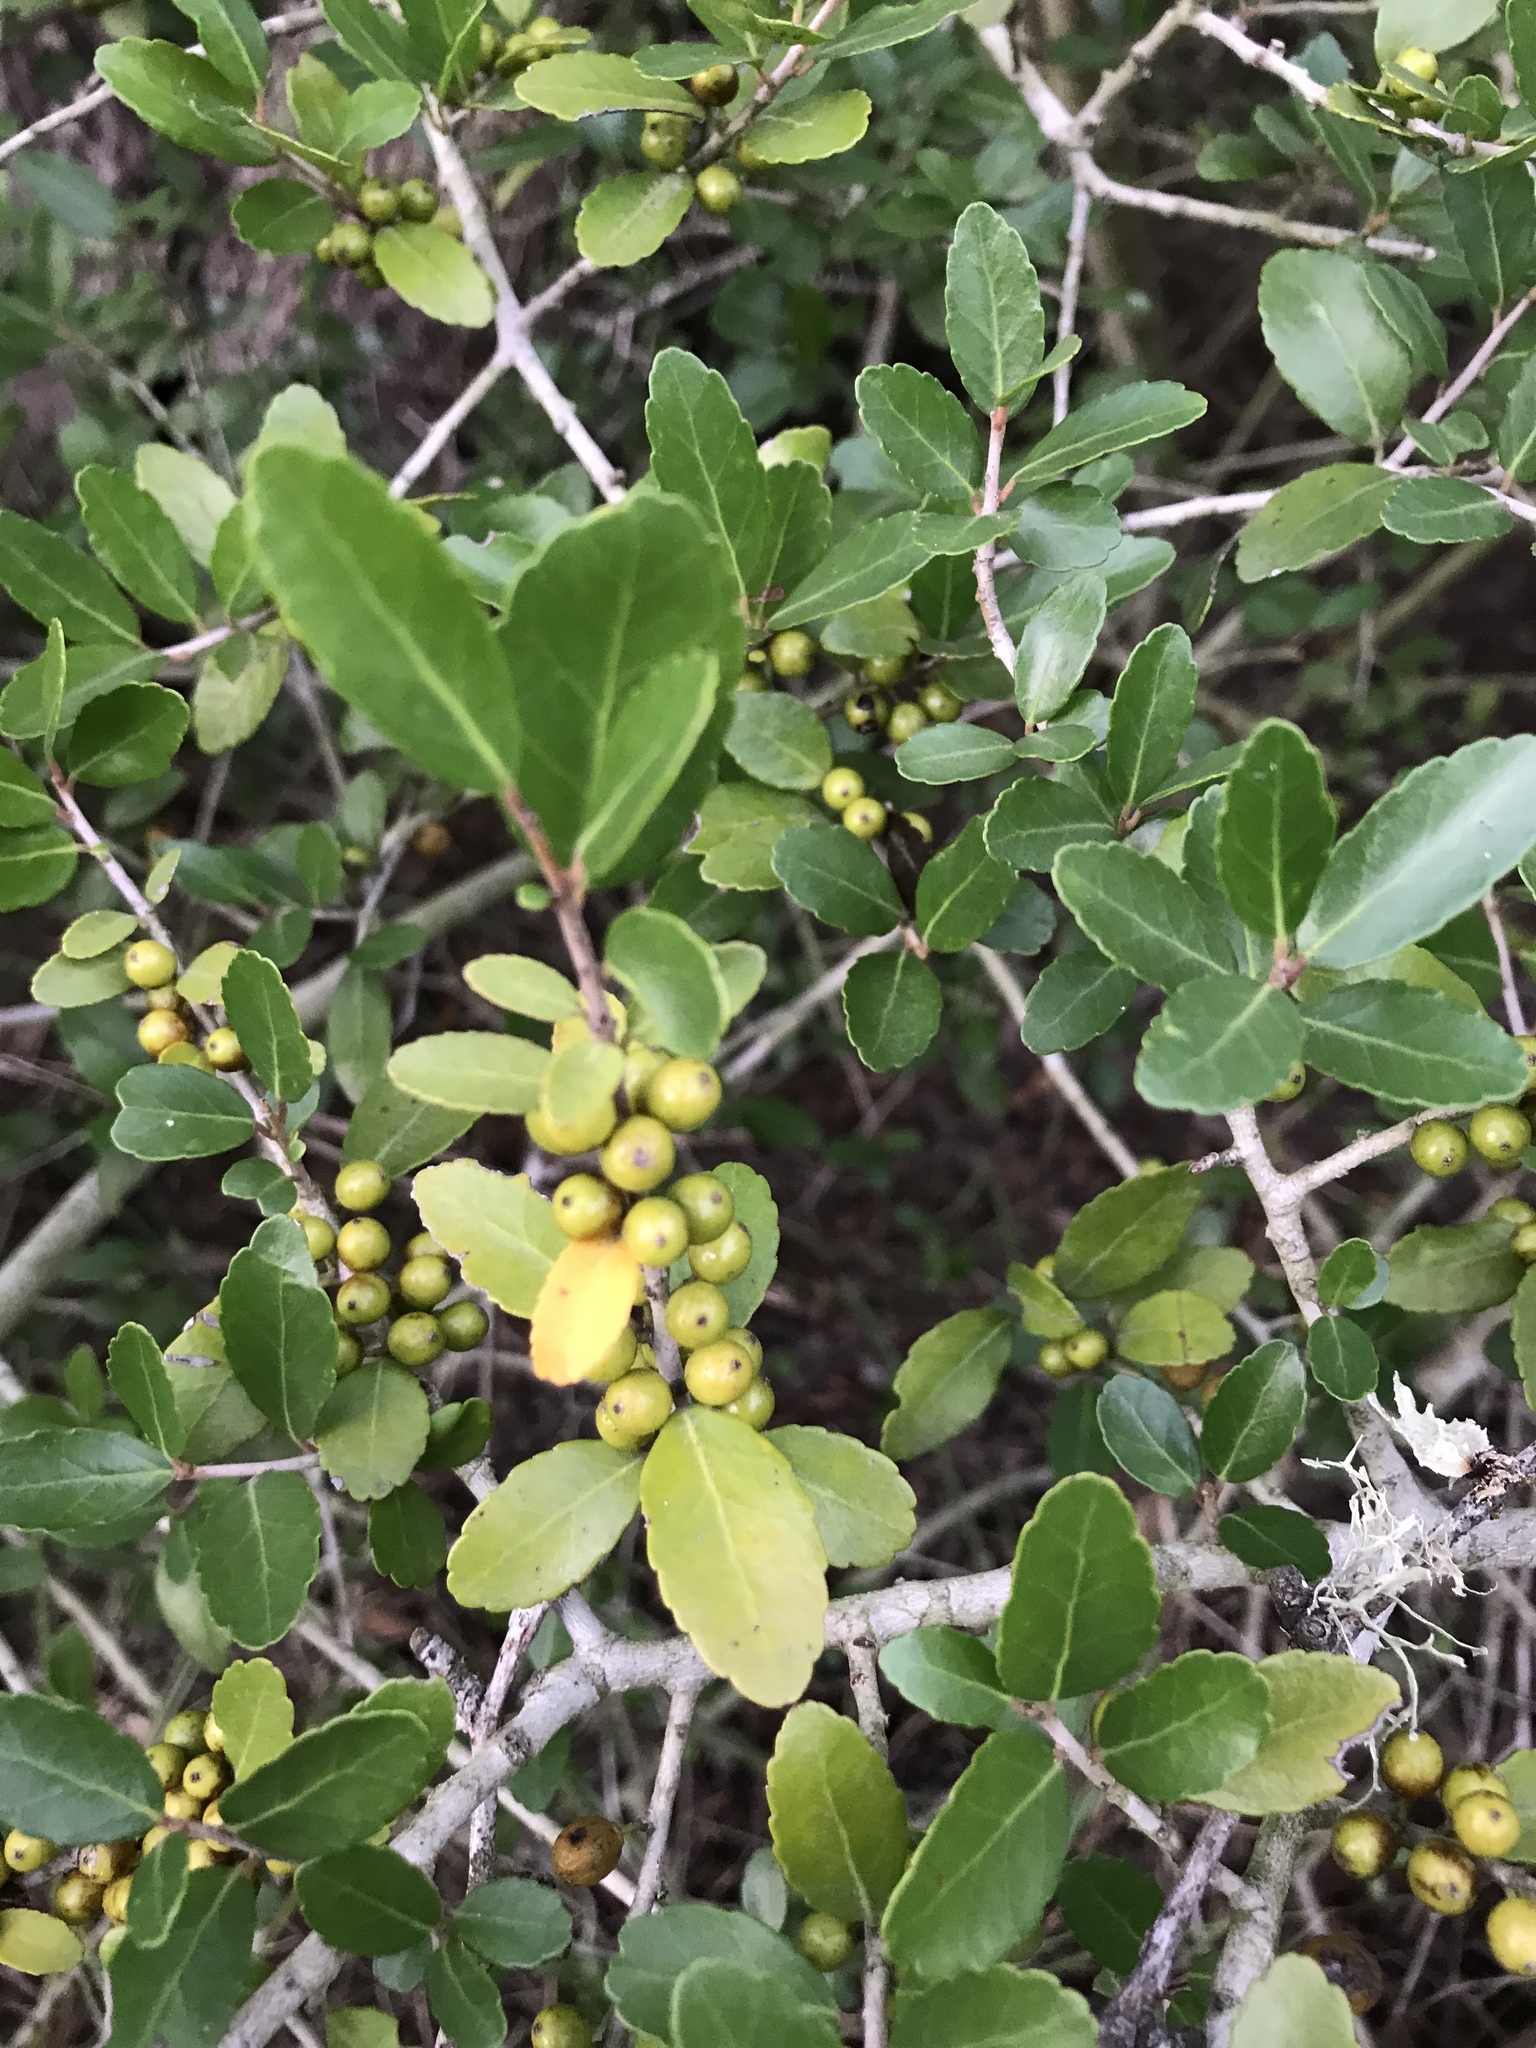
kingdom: Plantae
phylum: Tracheophyta
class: Magnoliopsida
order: Aquifoliales
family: Aquifoliaceae
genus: Ilex
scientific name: Ilex vomitoria
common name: Yaupon holly
